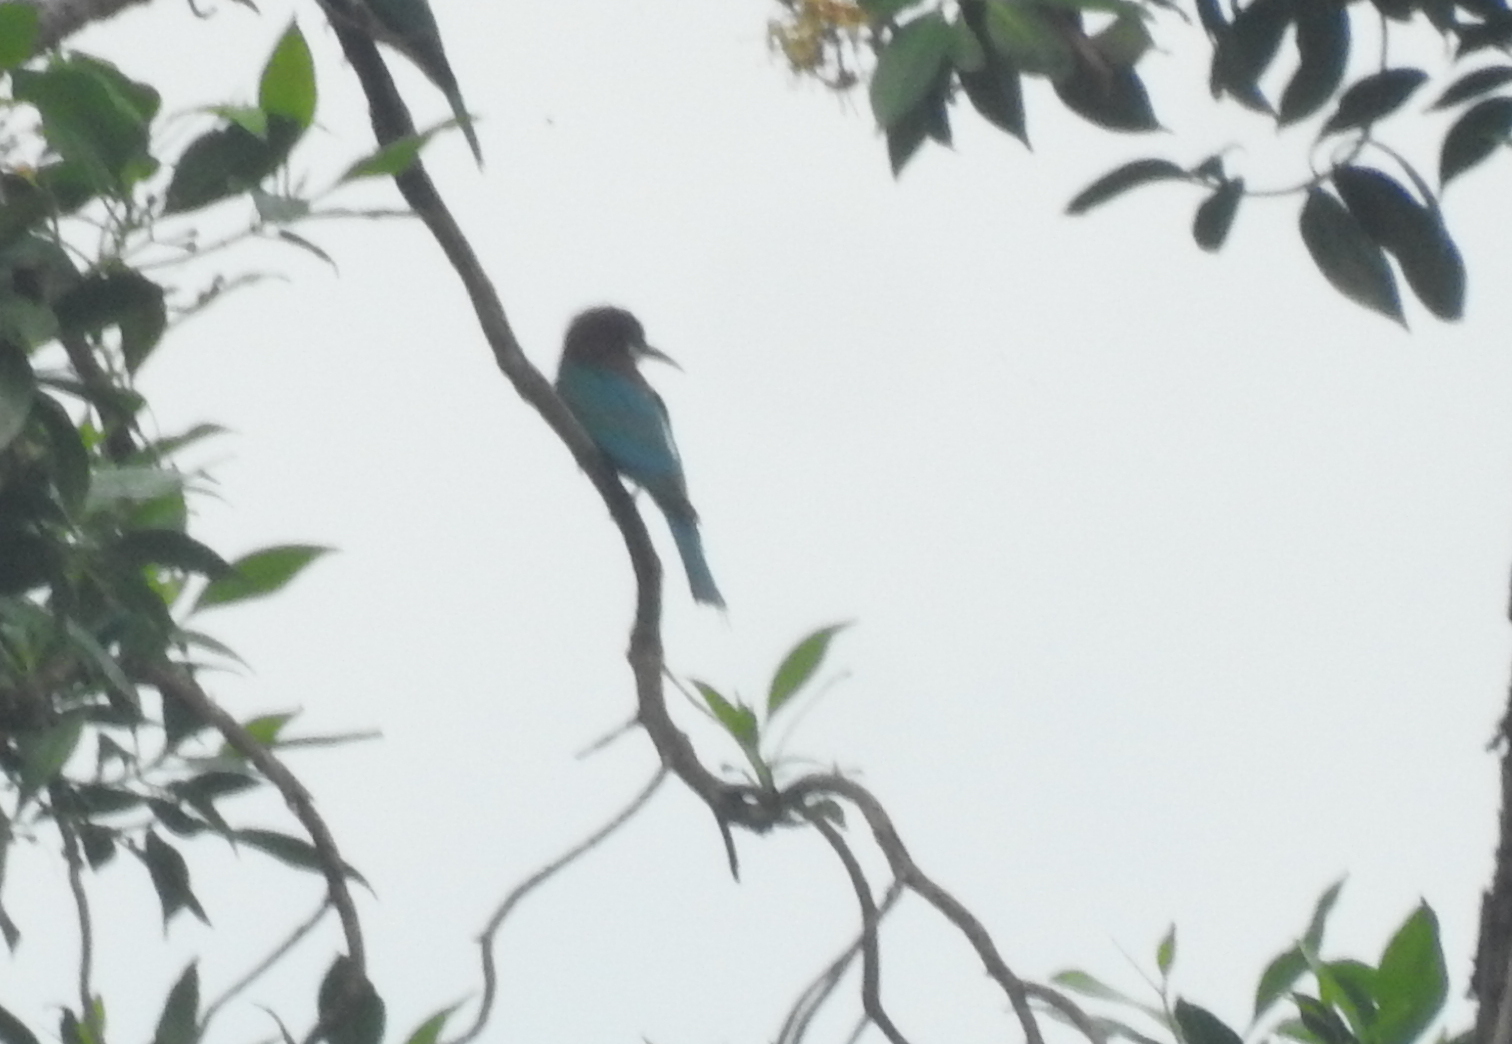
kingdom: Animalia
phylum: Chordata
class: Aves
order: Coraciiformes
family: Meropidae
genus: Merops
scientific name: Merops viridis
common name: Blue-throated bee-eater
